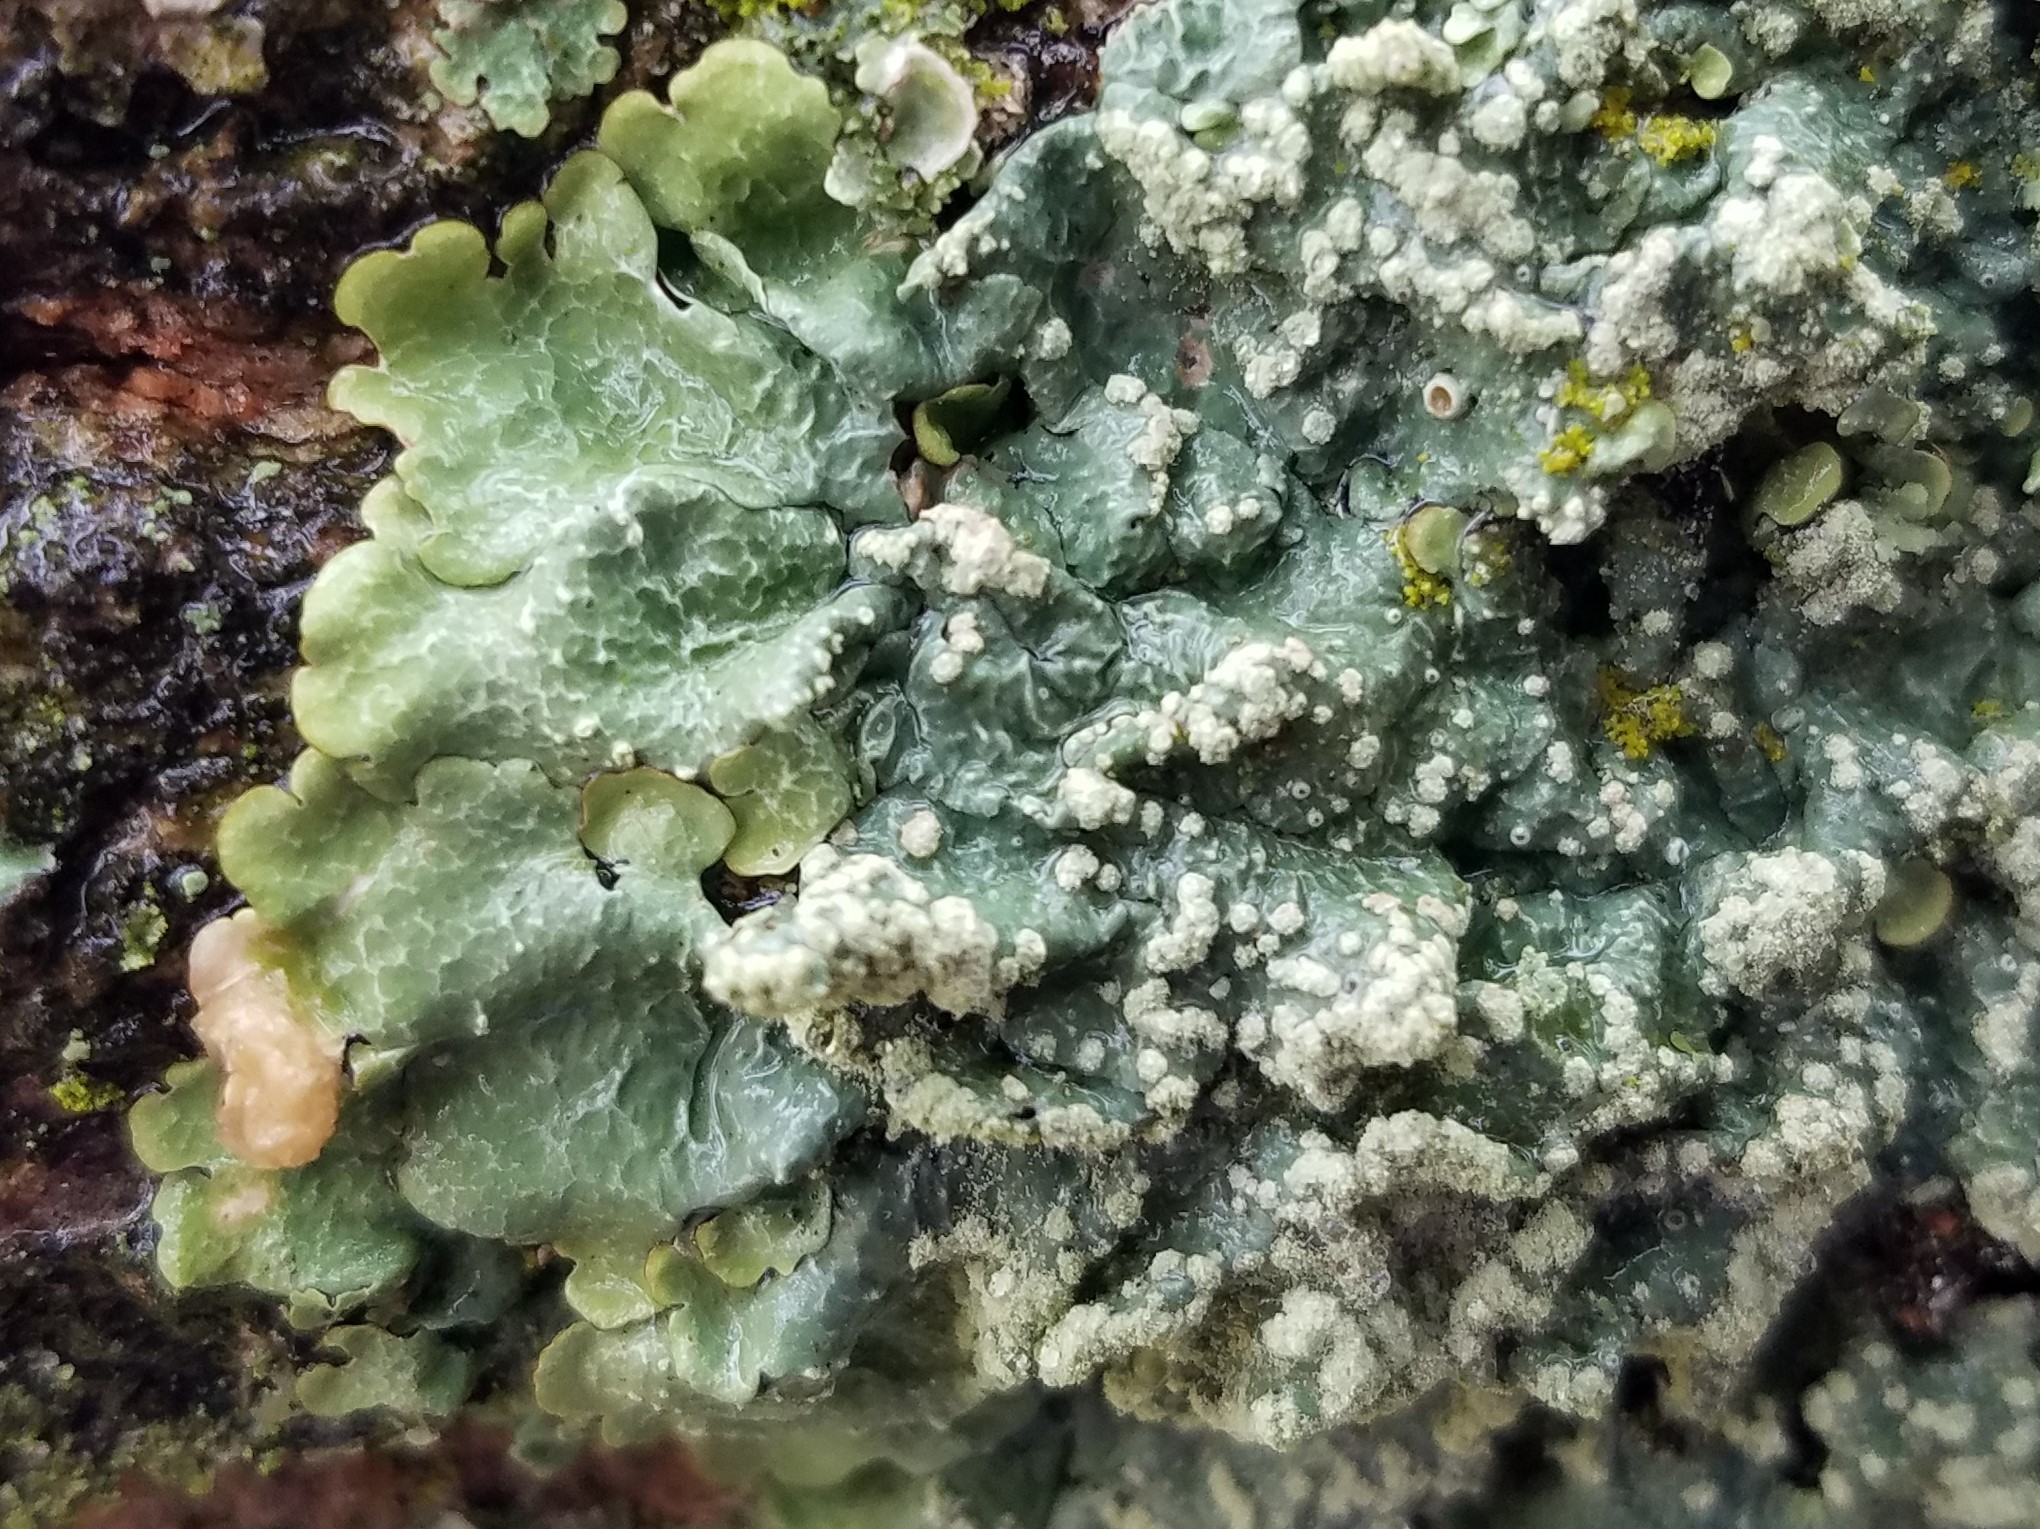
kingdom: Fungi
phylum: Ascomycota
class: Lecanoromycetes
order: Lecanorales
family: Parmeliaceae
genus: Crespoa
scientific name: Crespoa crozalsiana
